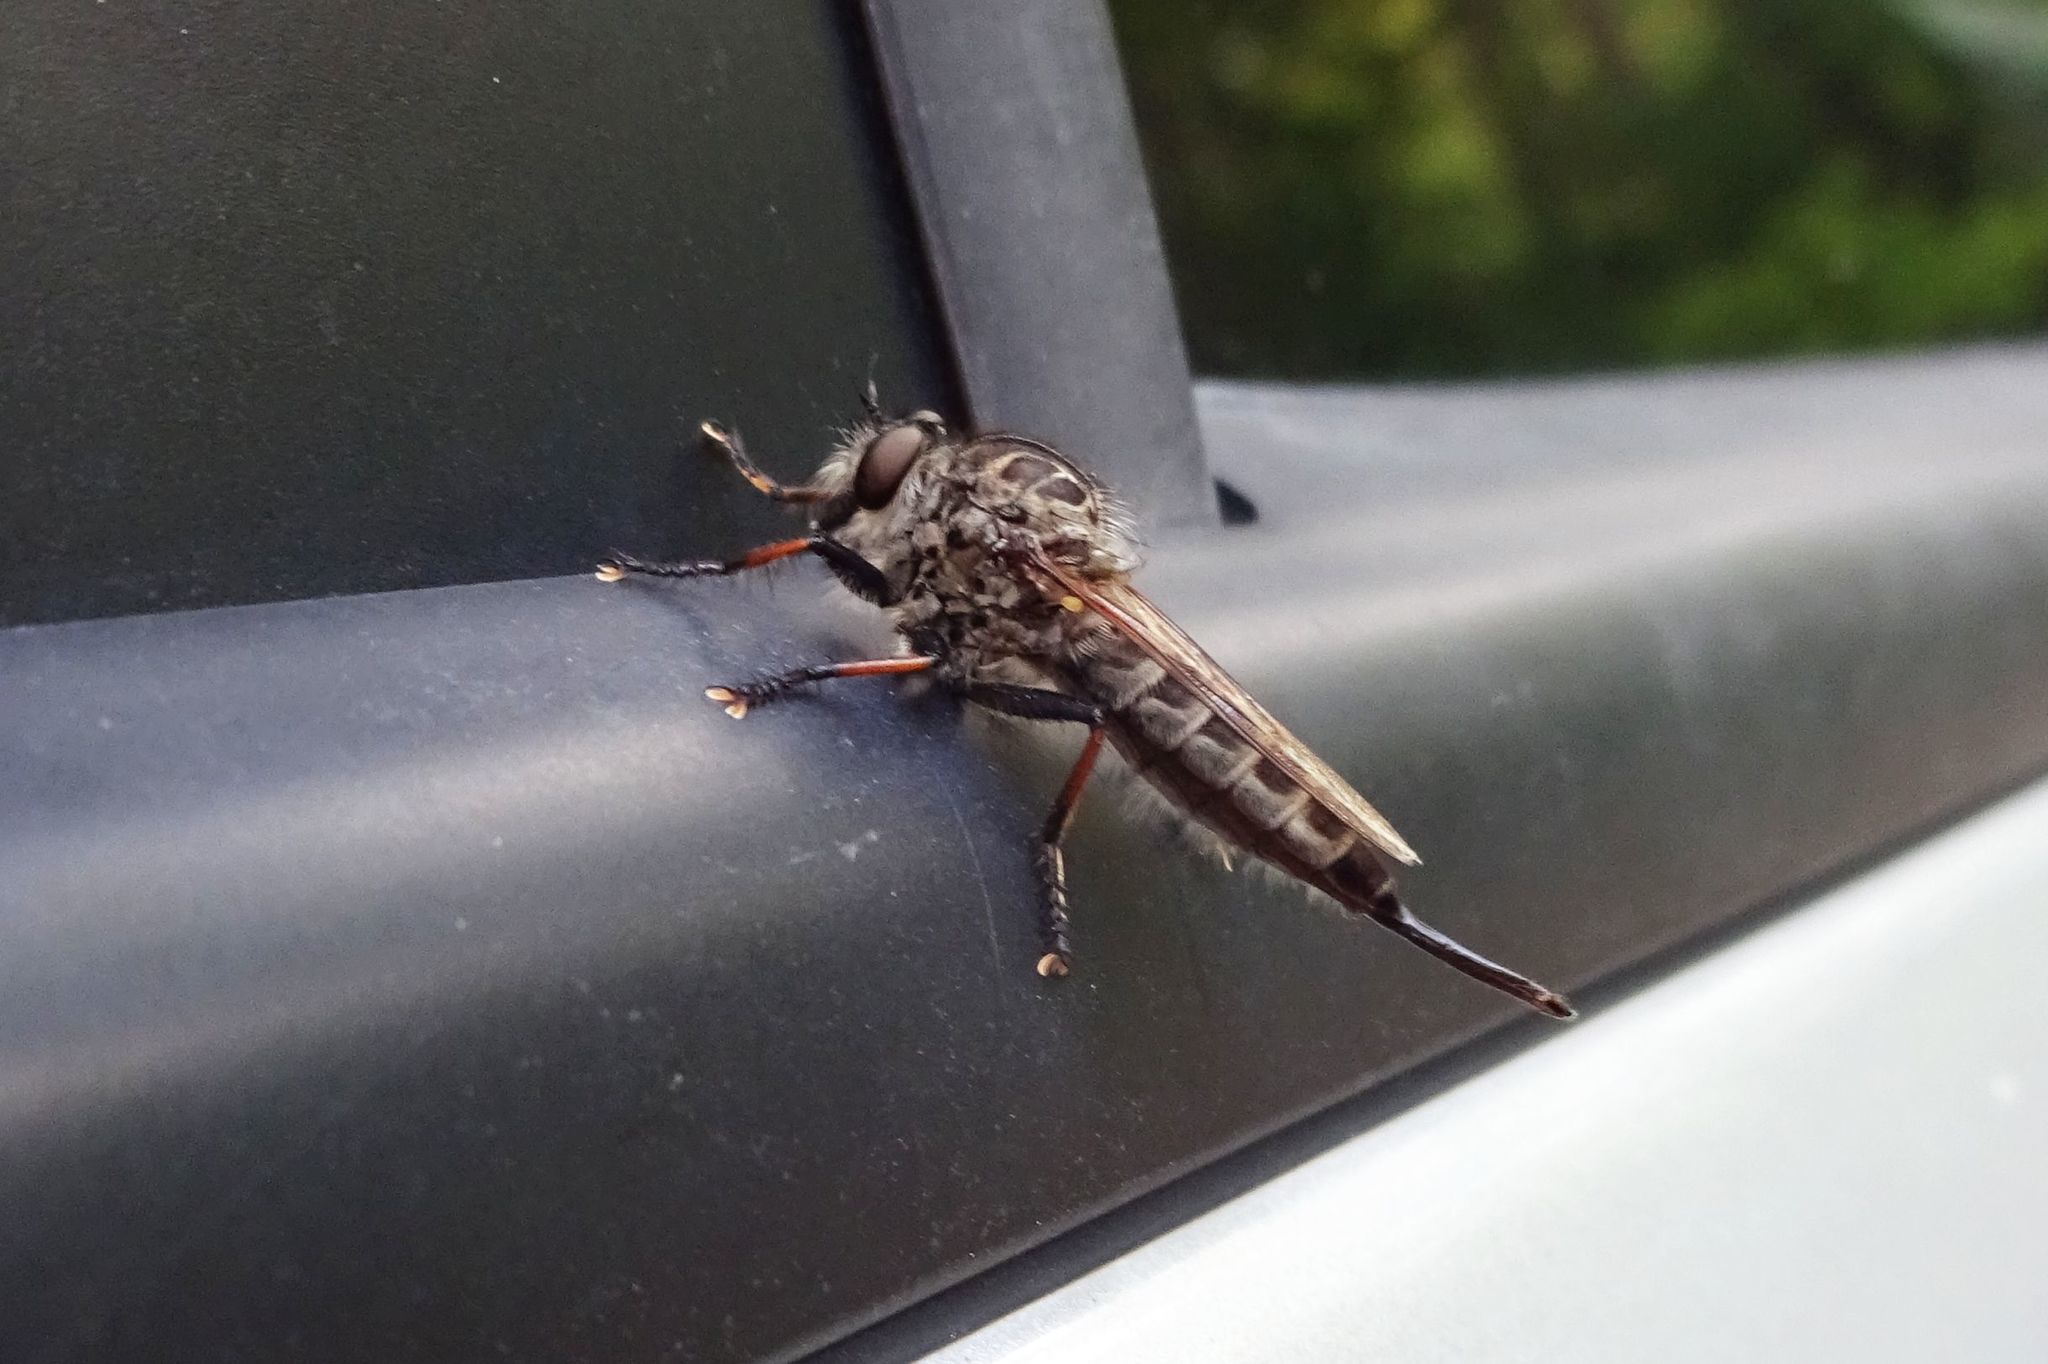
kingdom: Animalia
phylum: Arthropoda
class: Insecta
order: Diptera
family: Asilidae
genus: Efferia
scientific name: Efferia aestuans
